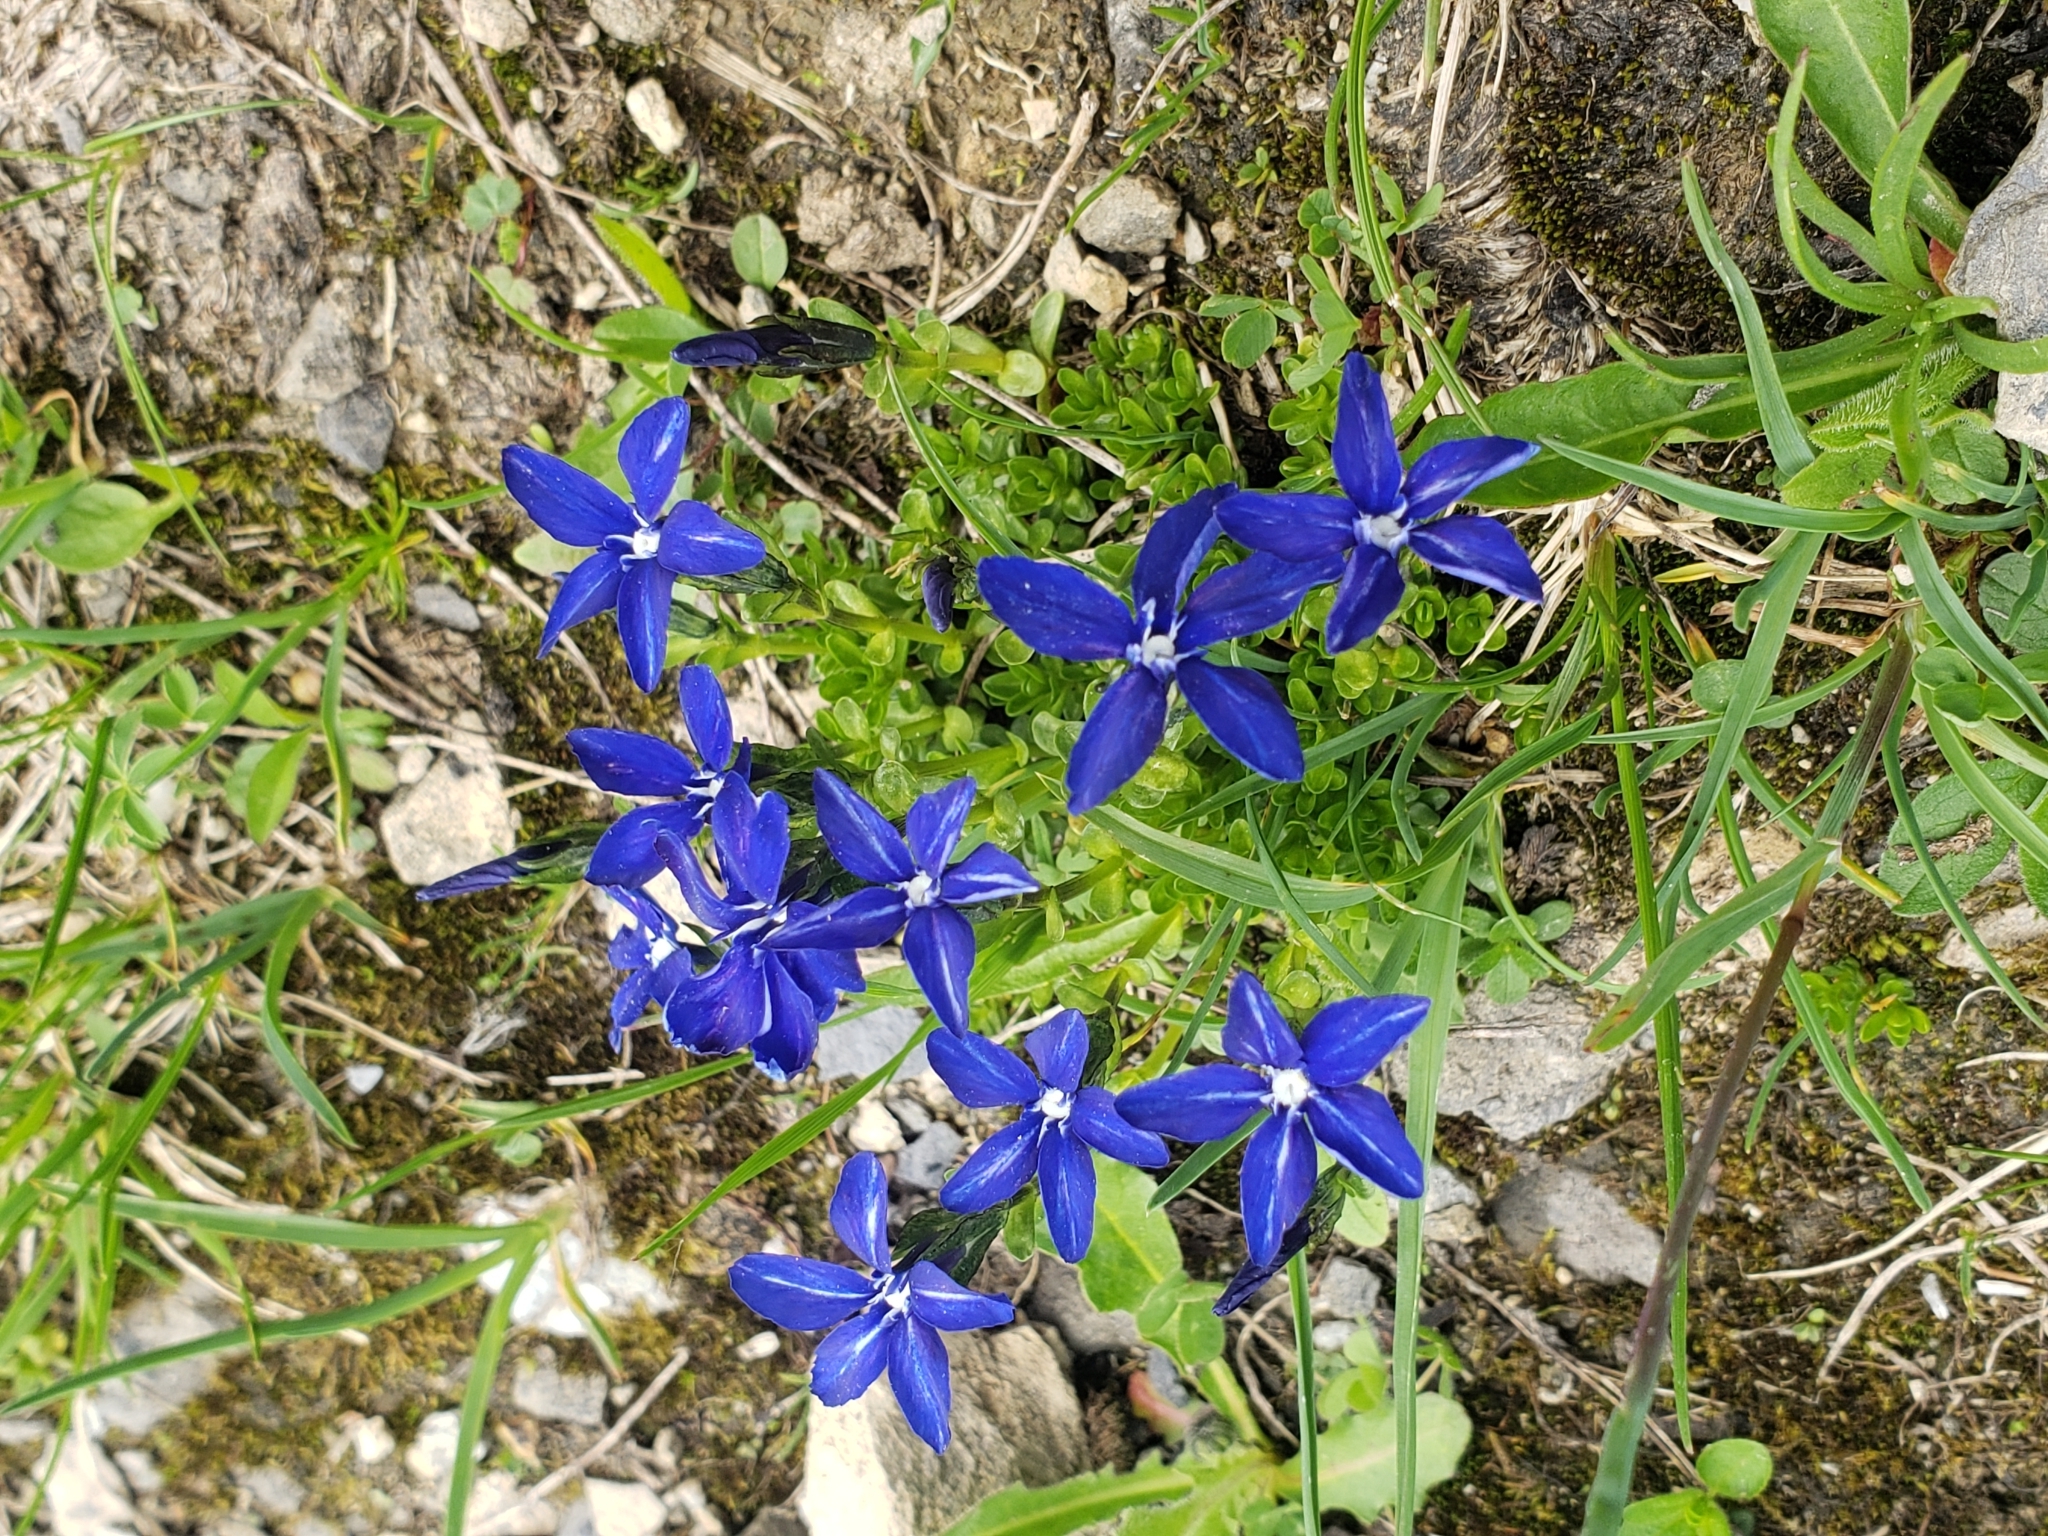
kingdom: Plantae
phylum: Tracheophyta
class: Magnoliopsida
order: Gentianales
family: Gentianaceae
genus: Gentiana
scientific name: Gentiana bavarica
